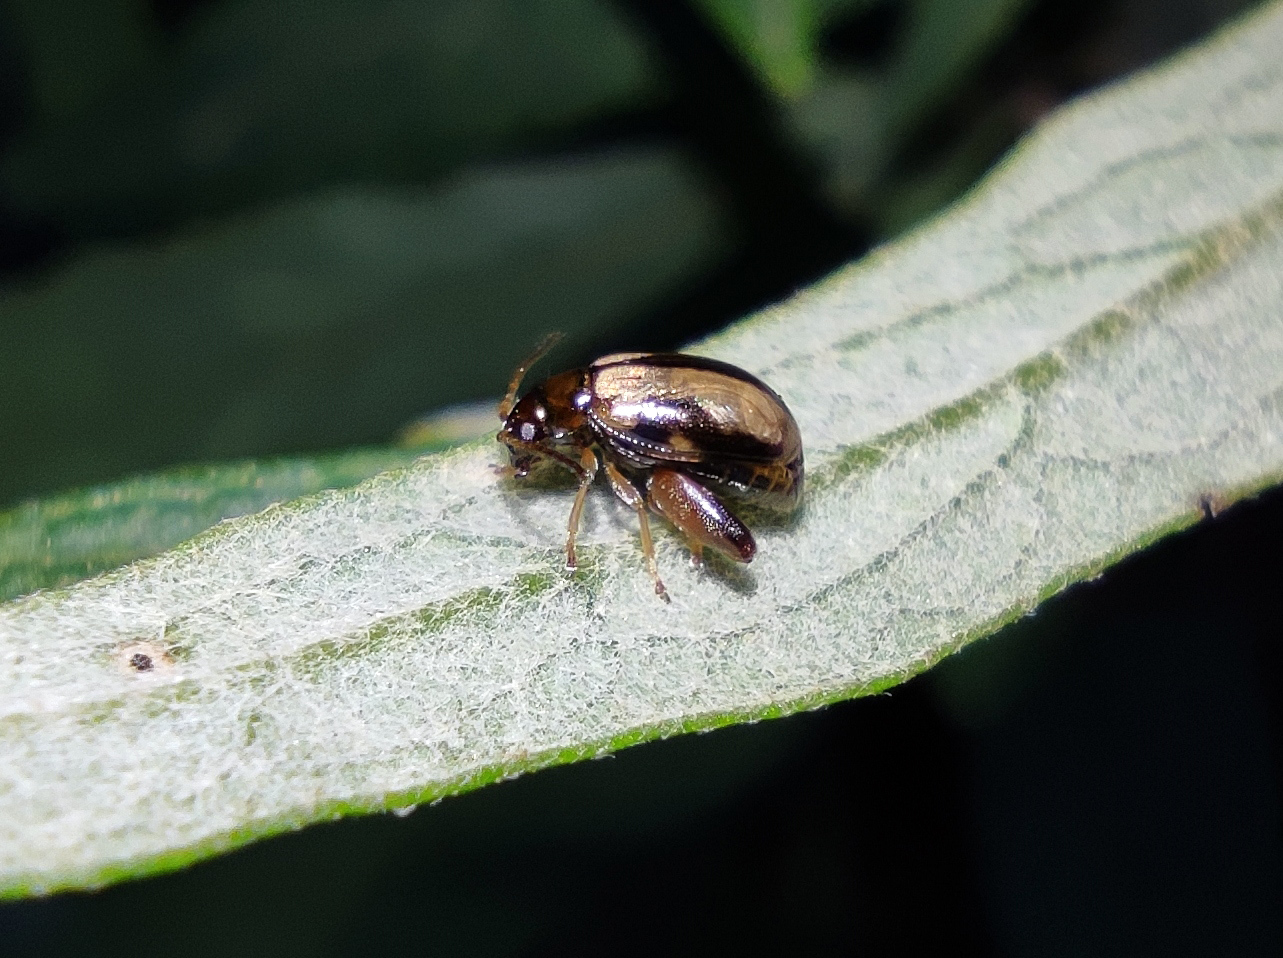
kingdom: Animalia
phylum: Arthropoda
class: Insecta
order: Coleoptera
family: Chrysomelidae
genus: Longitarsus
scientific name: Longitarsus nigrofasciatus
